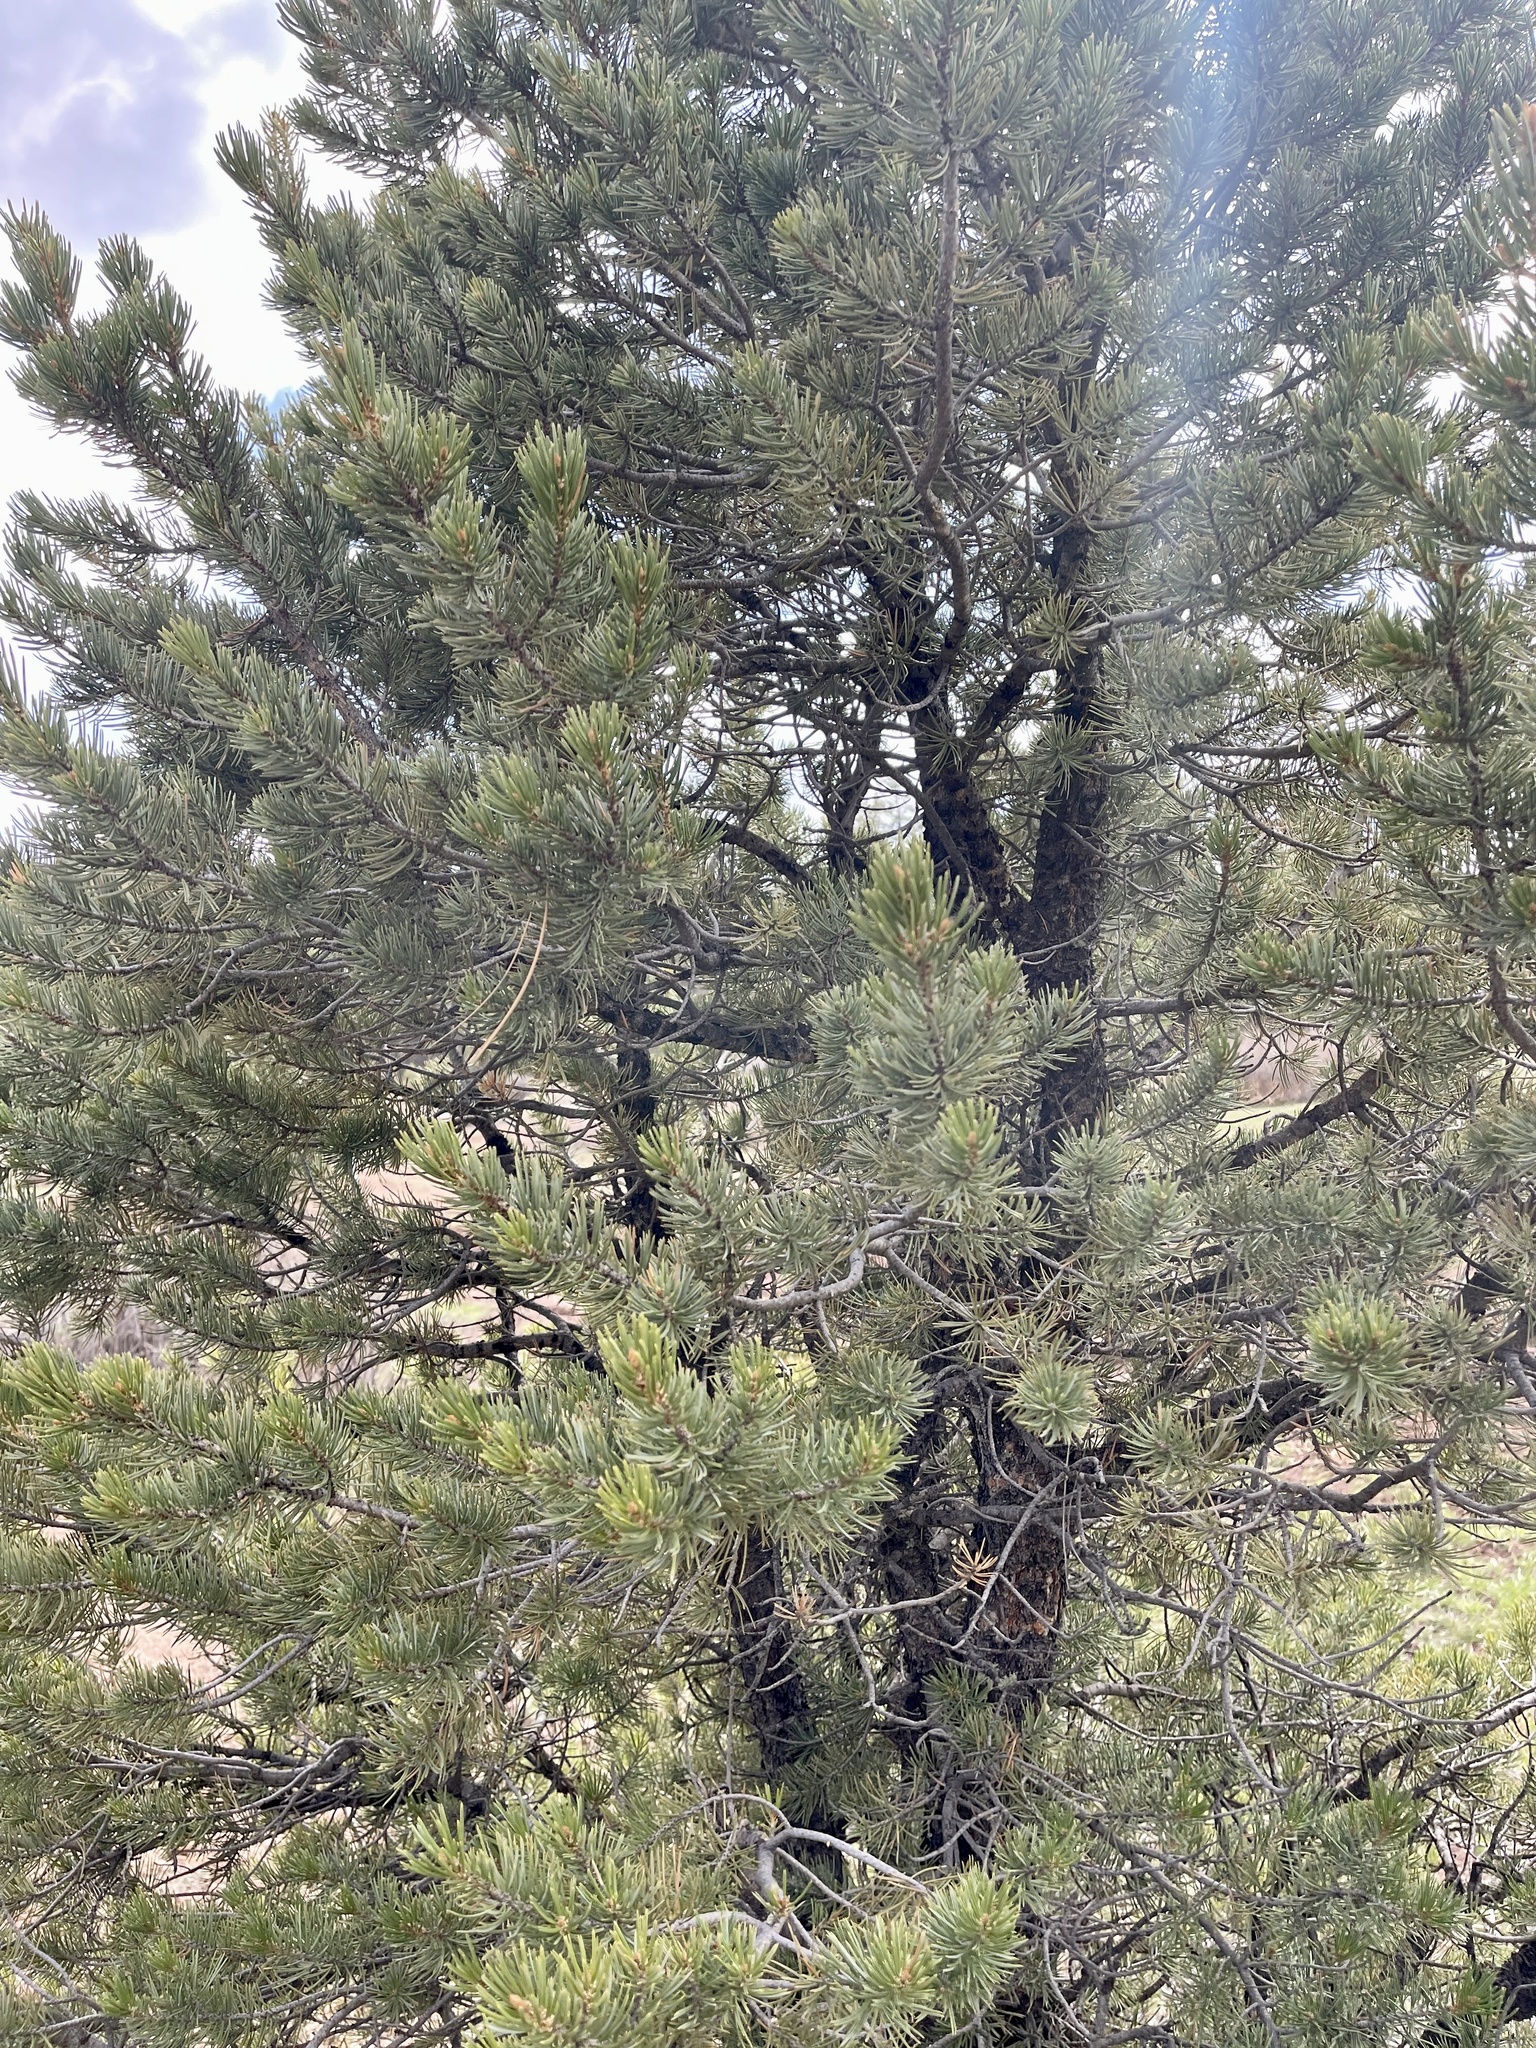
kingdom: Plantae
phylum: Tracheophyta
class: Pinopsida
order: Pinales
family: Pinaceae
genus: Pinus
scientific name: Pinus edulis
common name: Colorado pinyon
